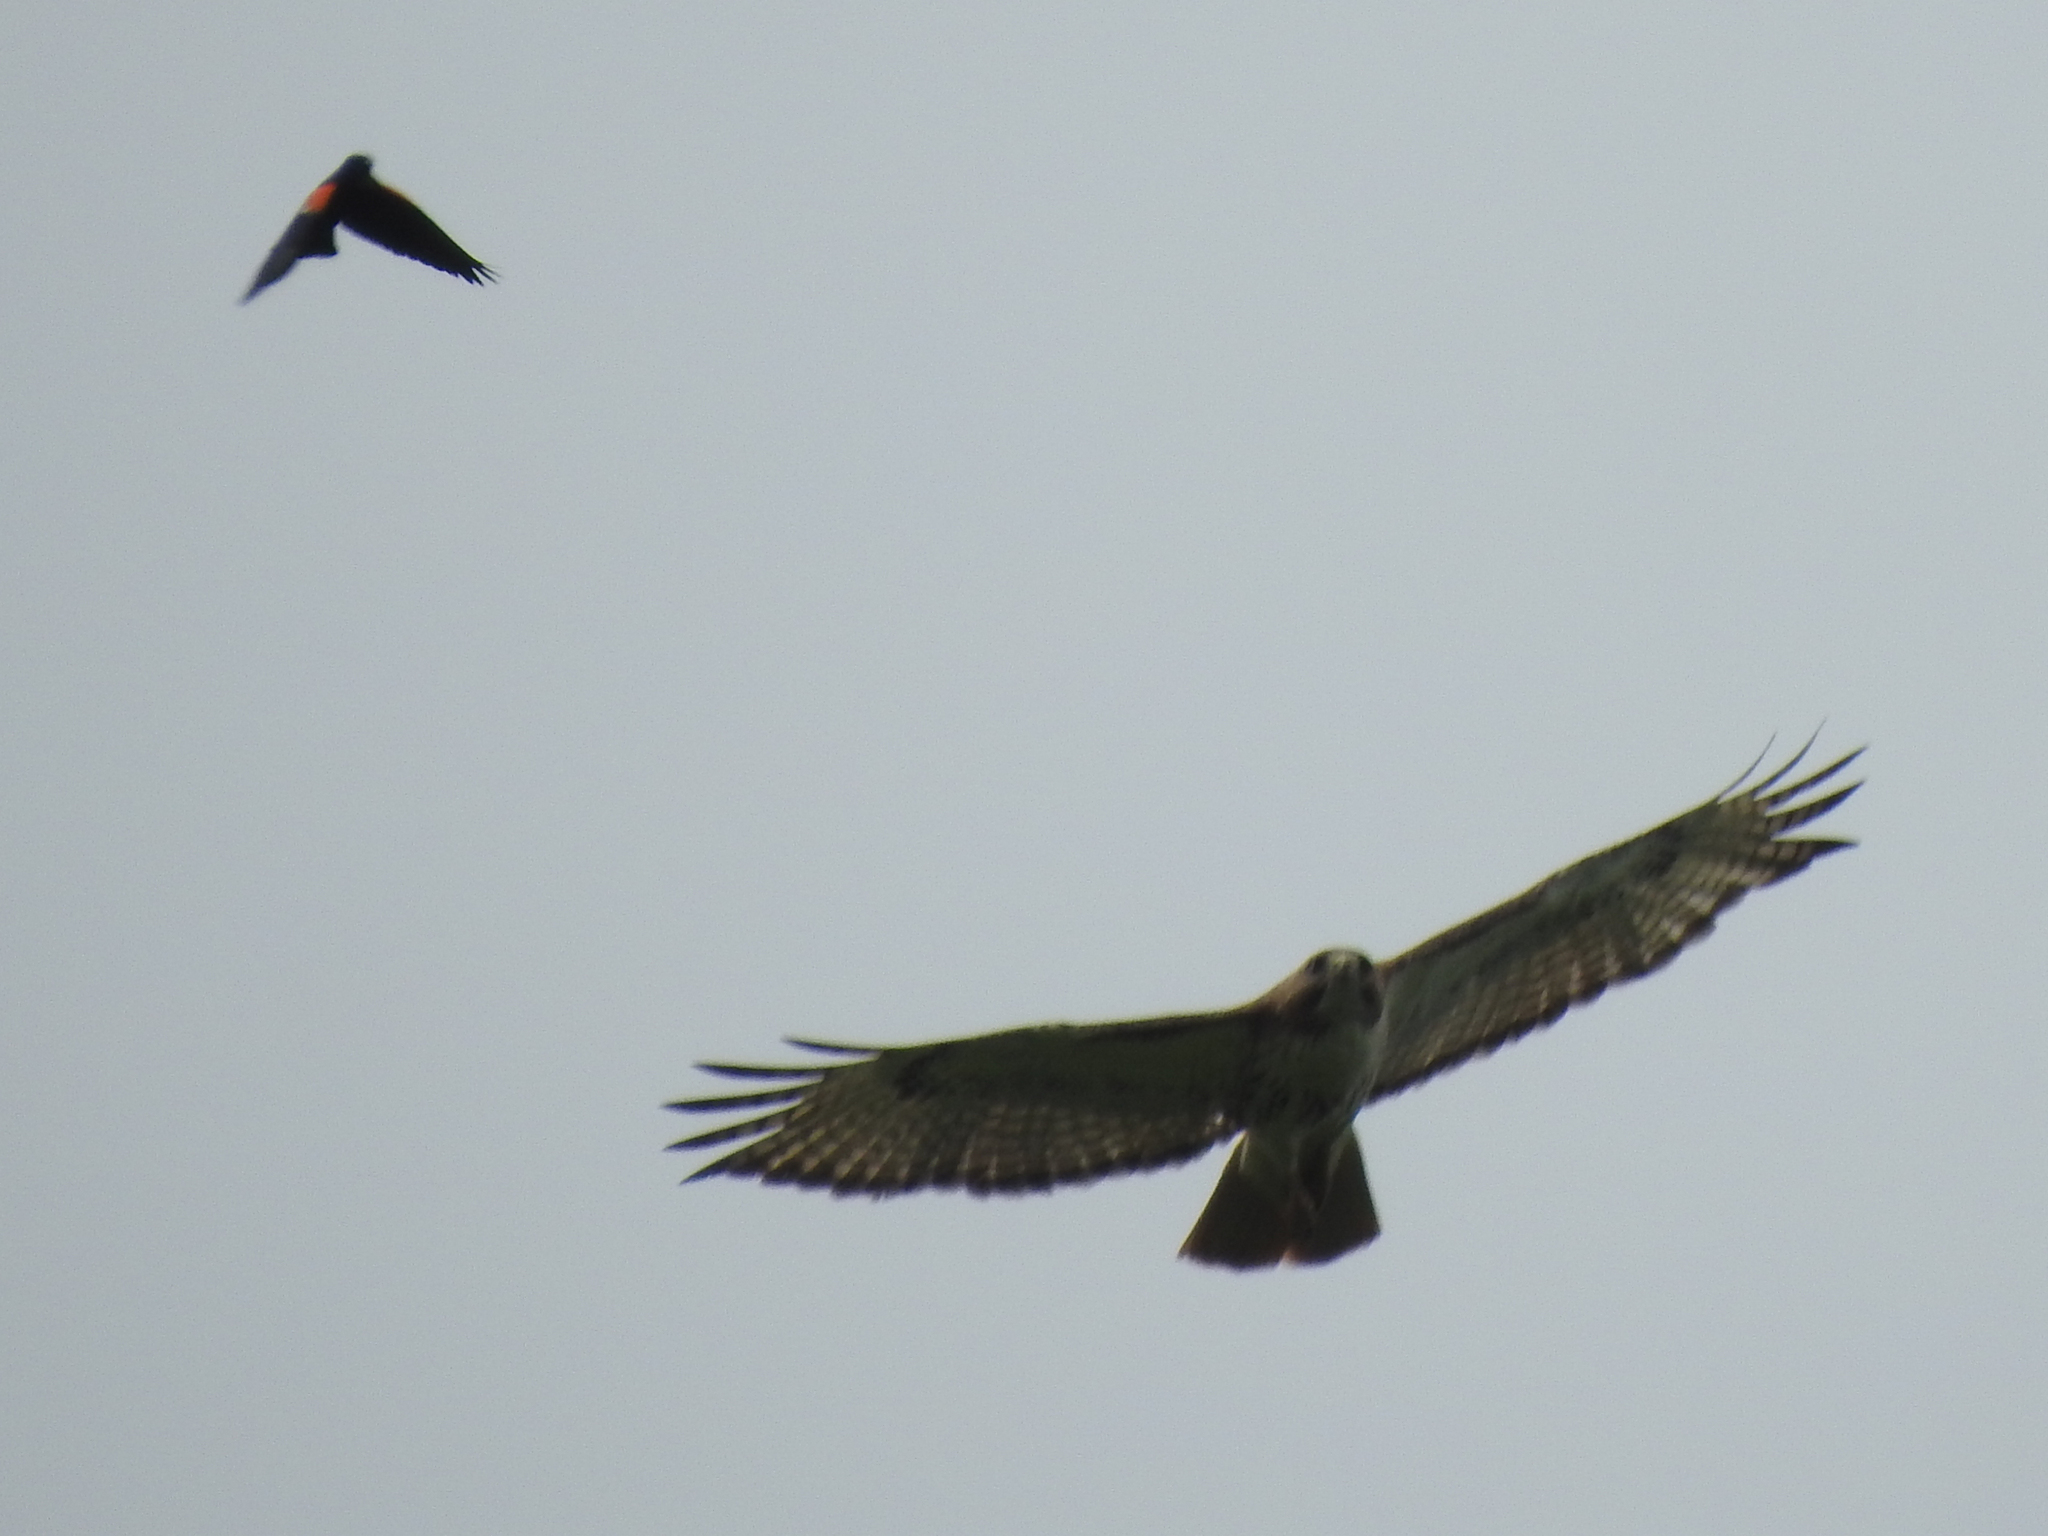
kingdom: Animalia
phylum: Chordata
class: Aves
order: Accipitriformes
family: Accipitridae
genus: Buteo
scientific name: Buteo jamaicensis
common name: Red-tailed hawk
